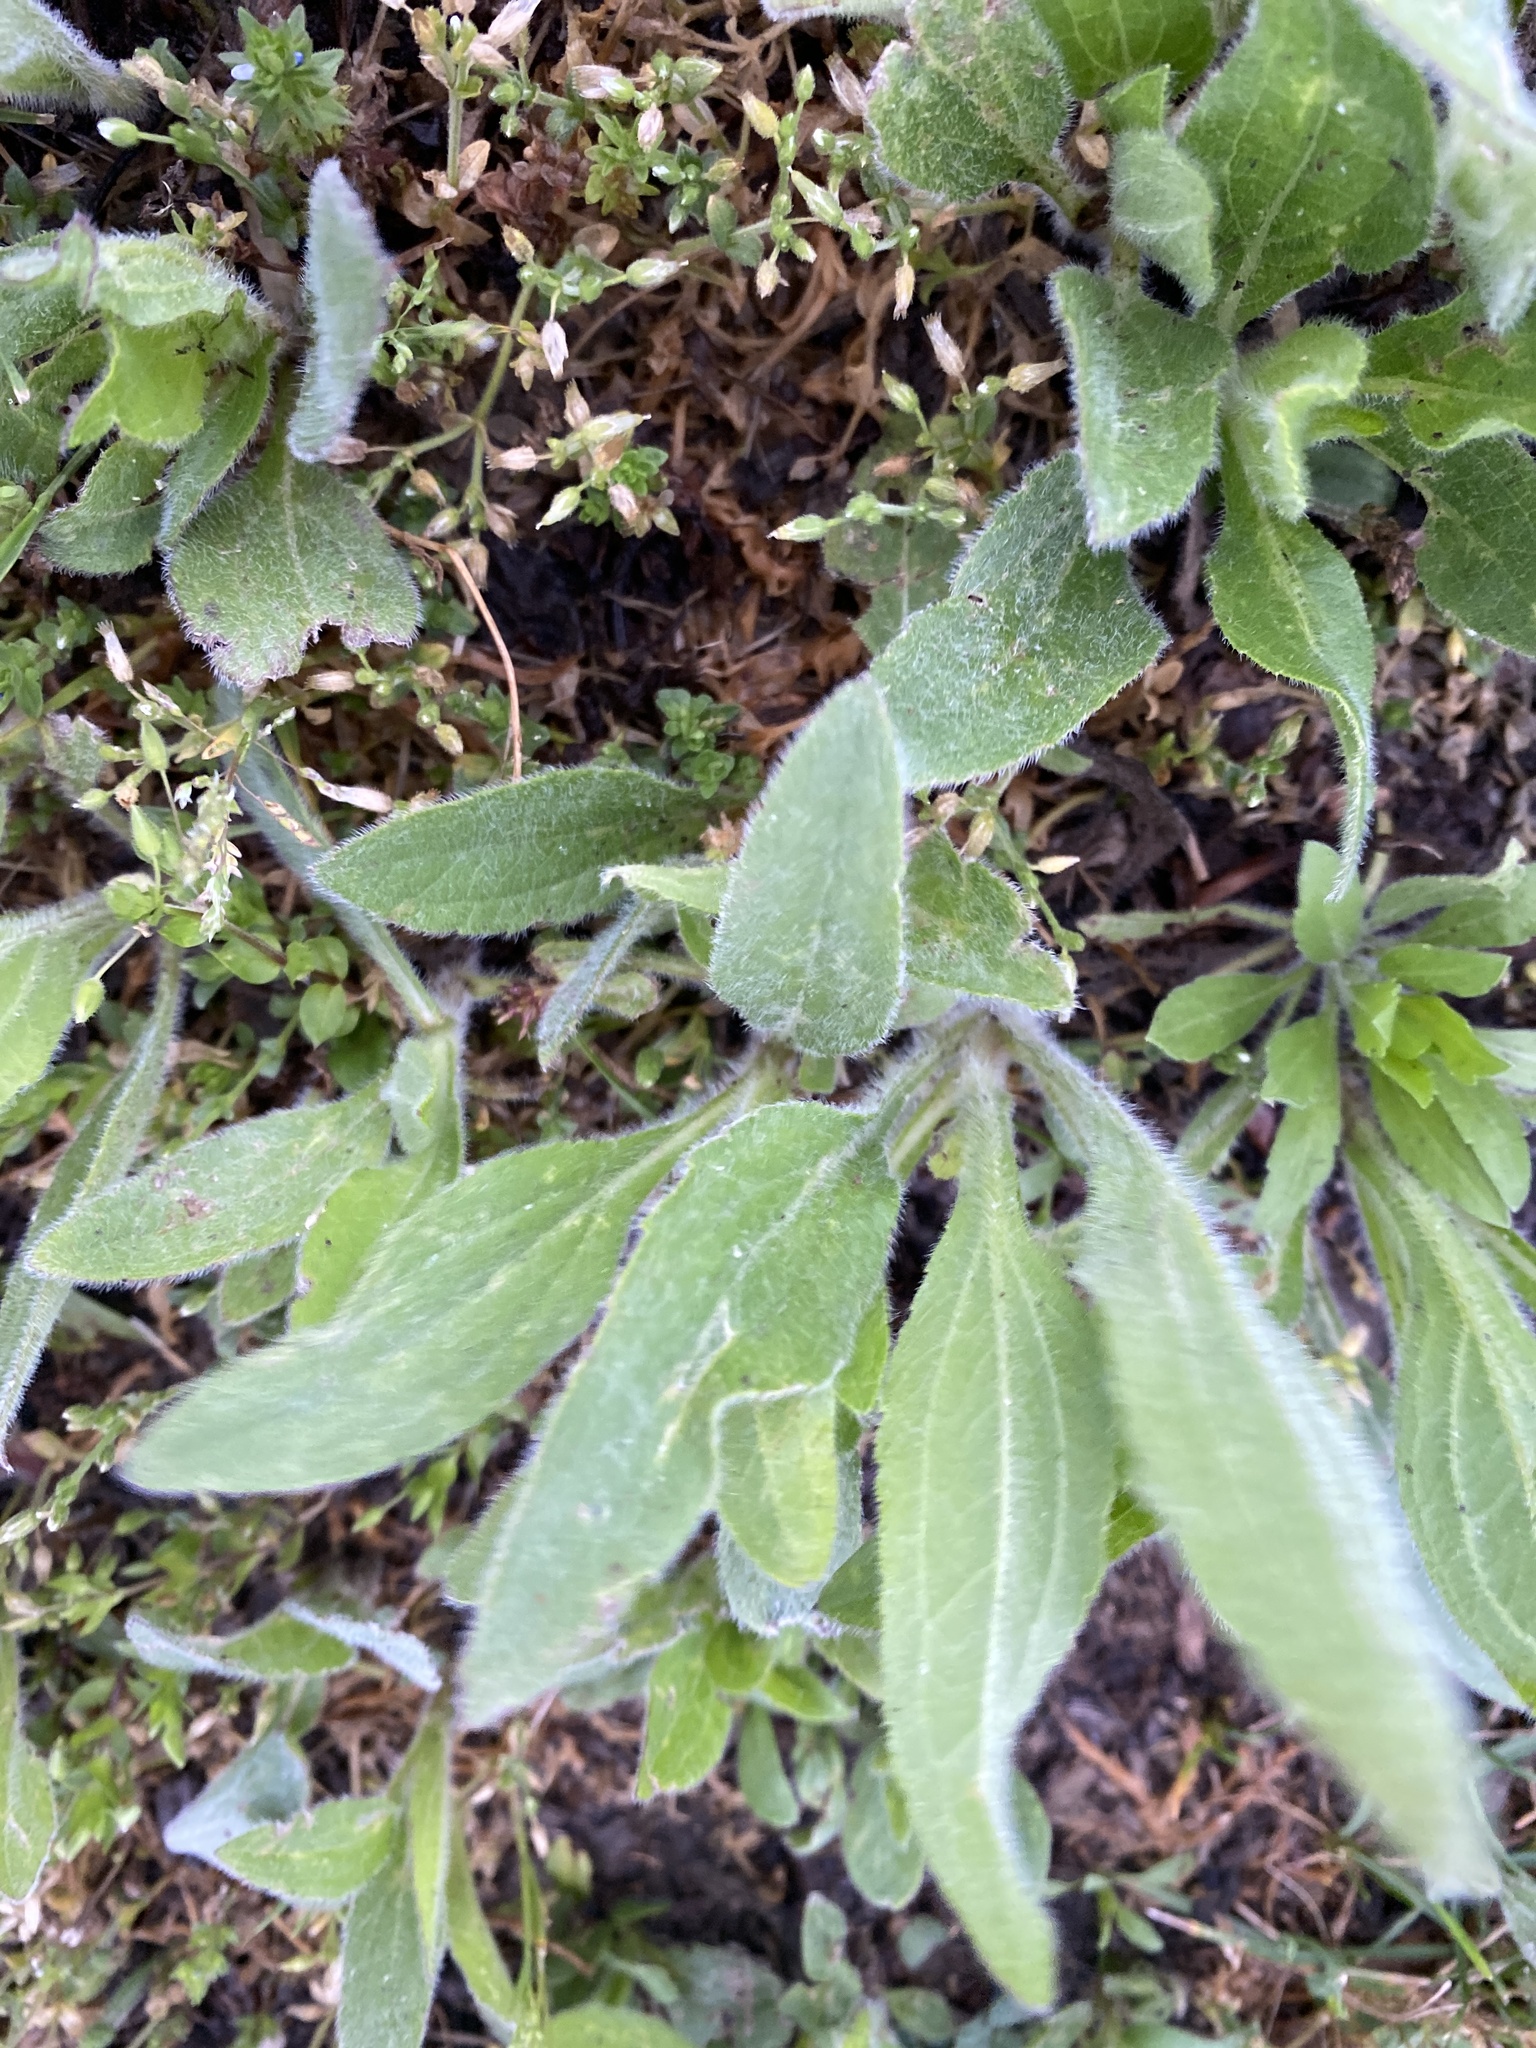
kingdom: Plantae
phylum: Tracheophyta
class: Magnoliopsida
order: Lamiales
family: Plantaginaceae
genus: Plantago
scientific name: Plantago virginica
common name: Hoary plantain
